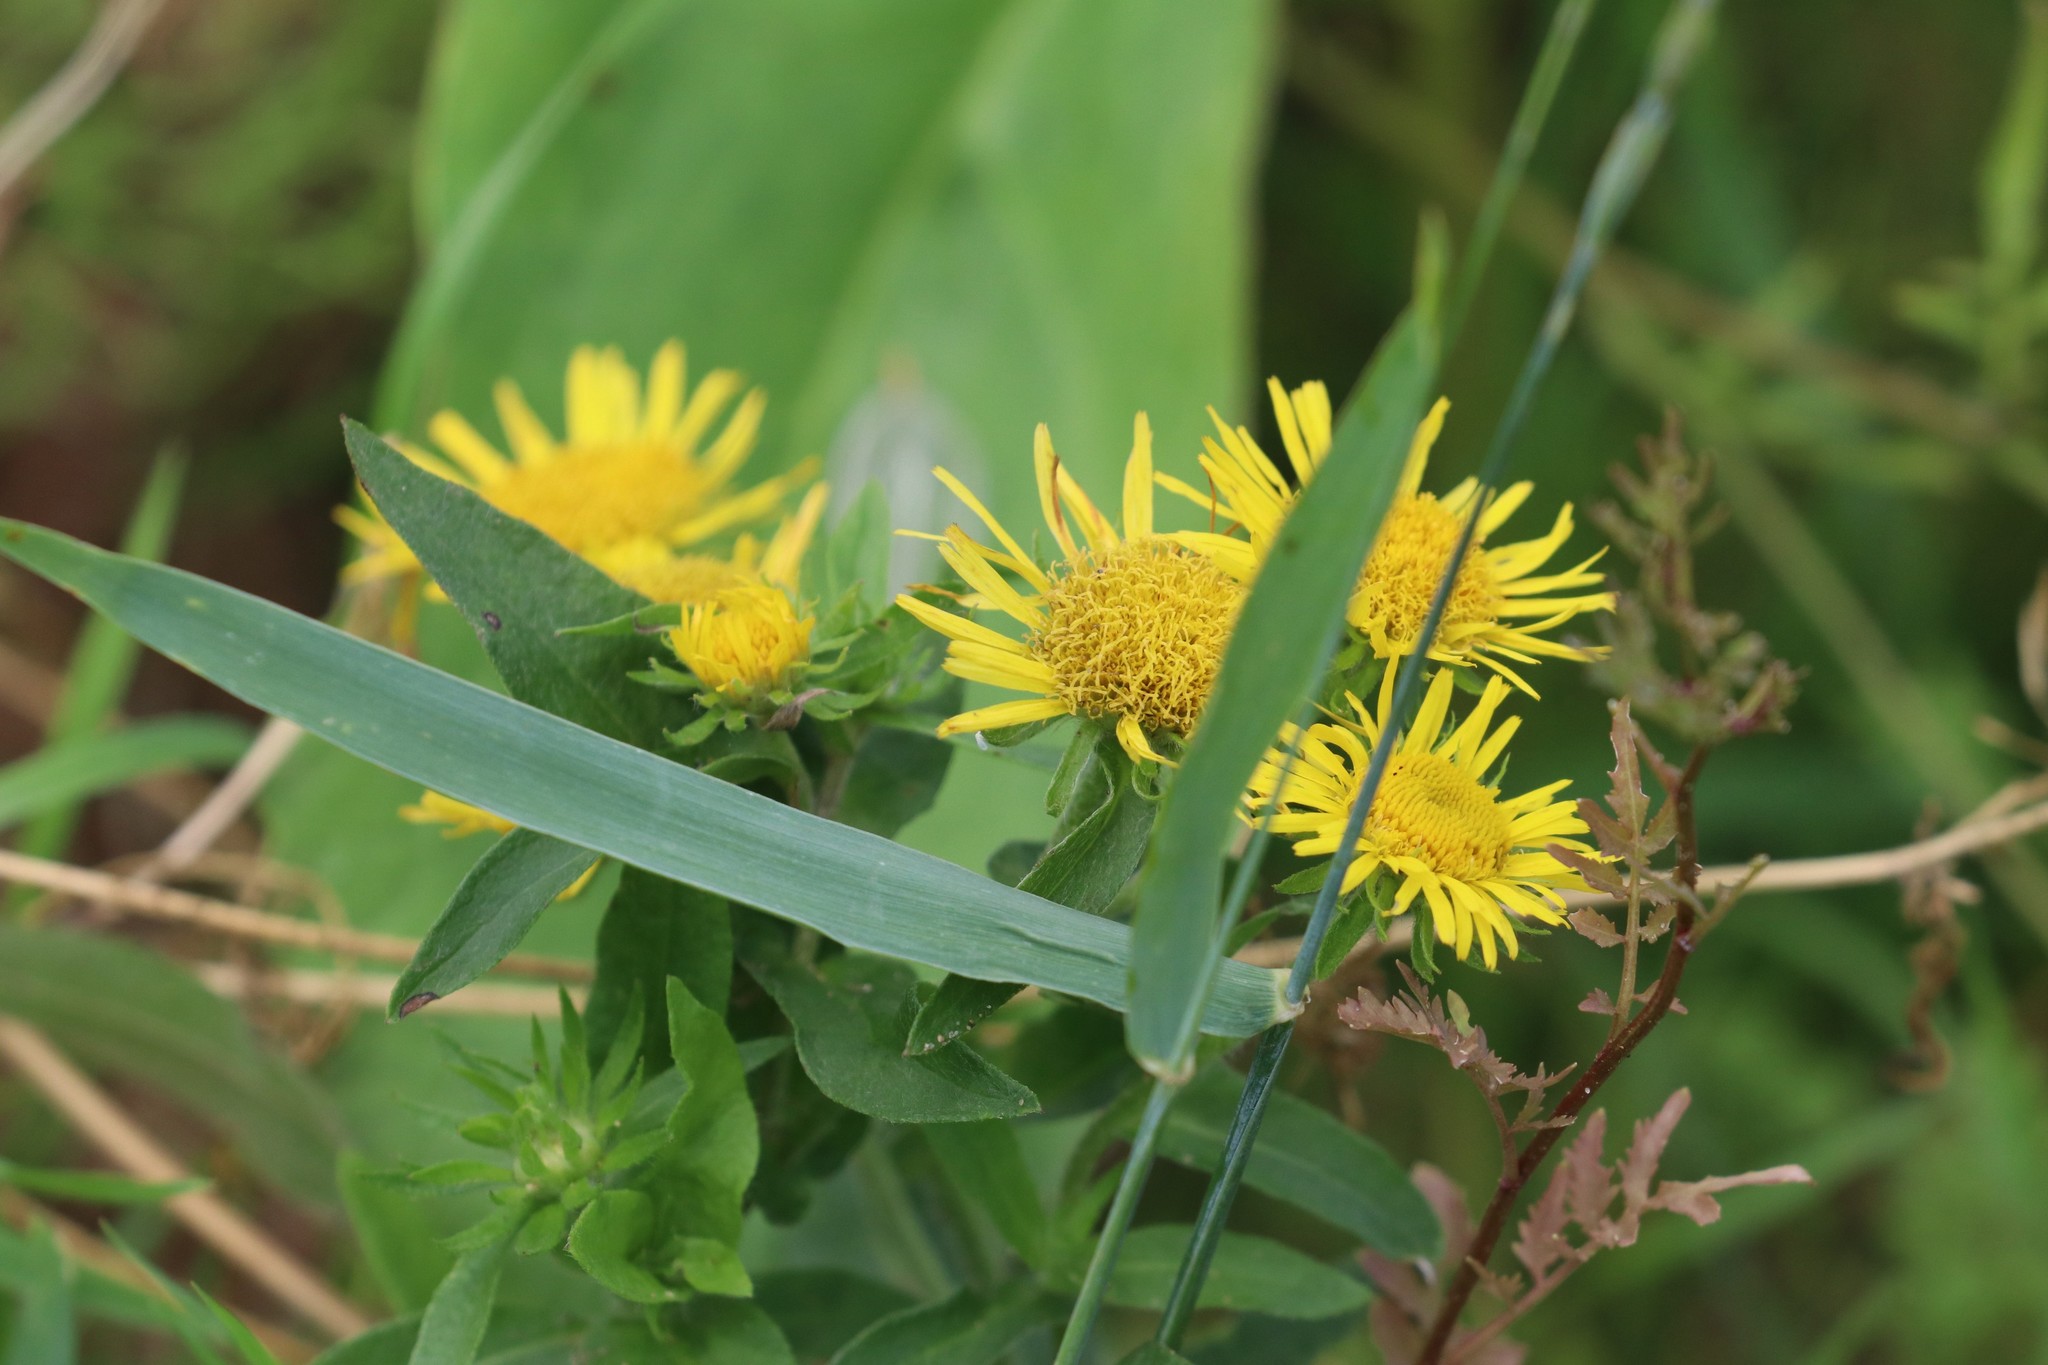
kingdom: Plantae
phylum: Tracheophyta
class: Magnoliopsida
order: Asterales
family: Asteraceae
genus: Pentanema
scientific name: Pentanema britannicum
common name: British elecampane
